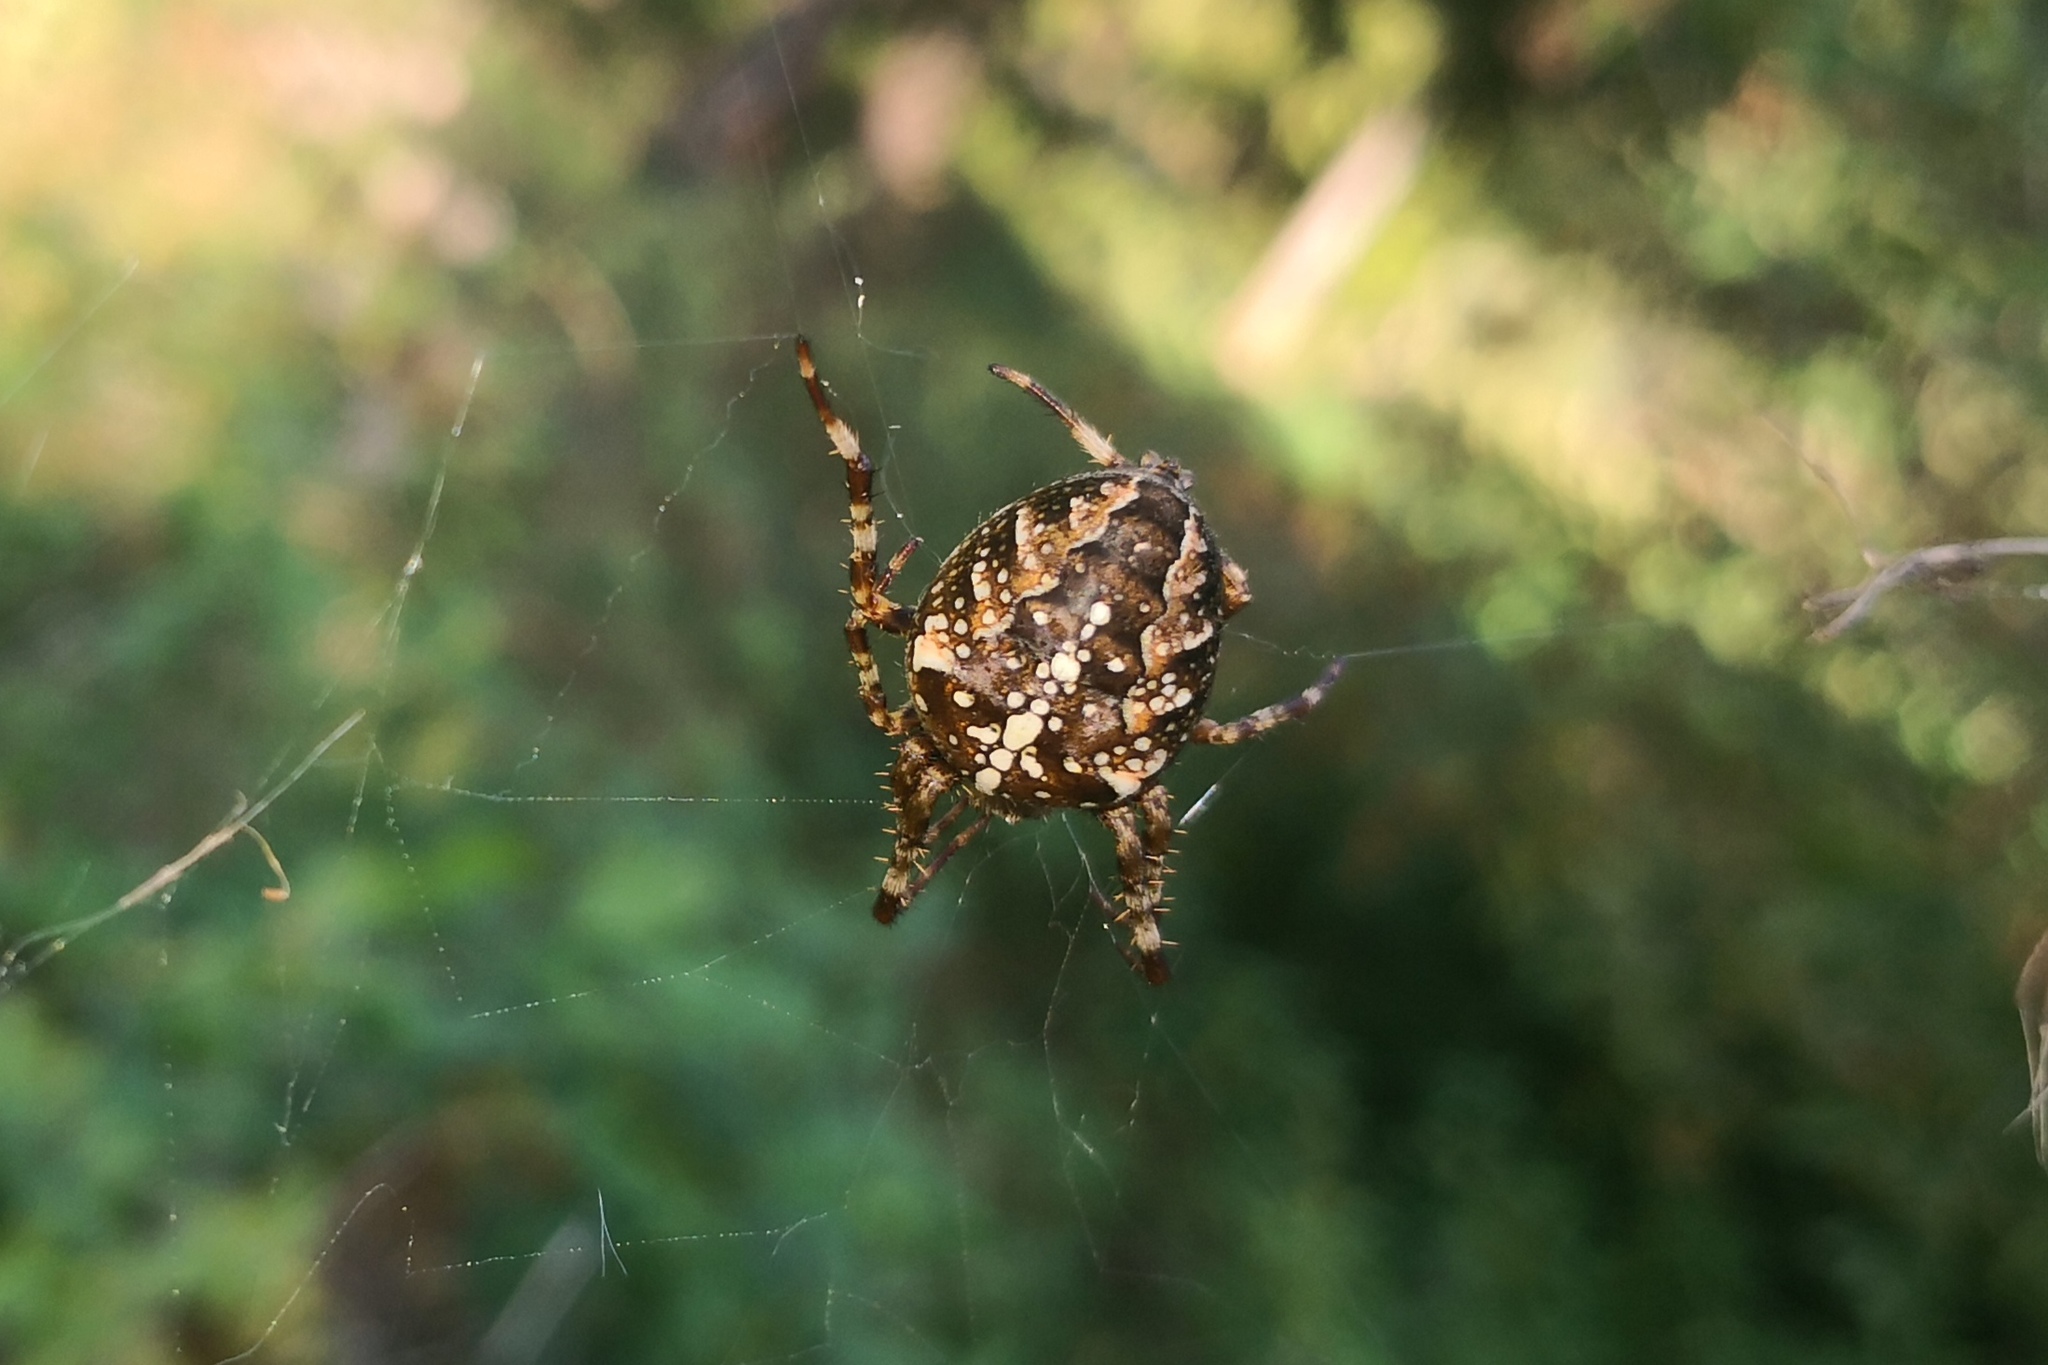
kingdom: Animalia
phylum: Arthropoda
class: Arachnida
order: Araneae
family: Araneidae
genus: Araneus
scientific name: Araneus diadematus
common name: Cross orbweaver
